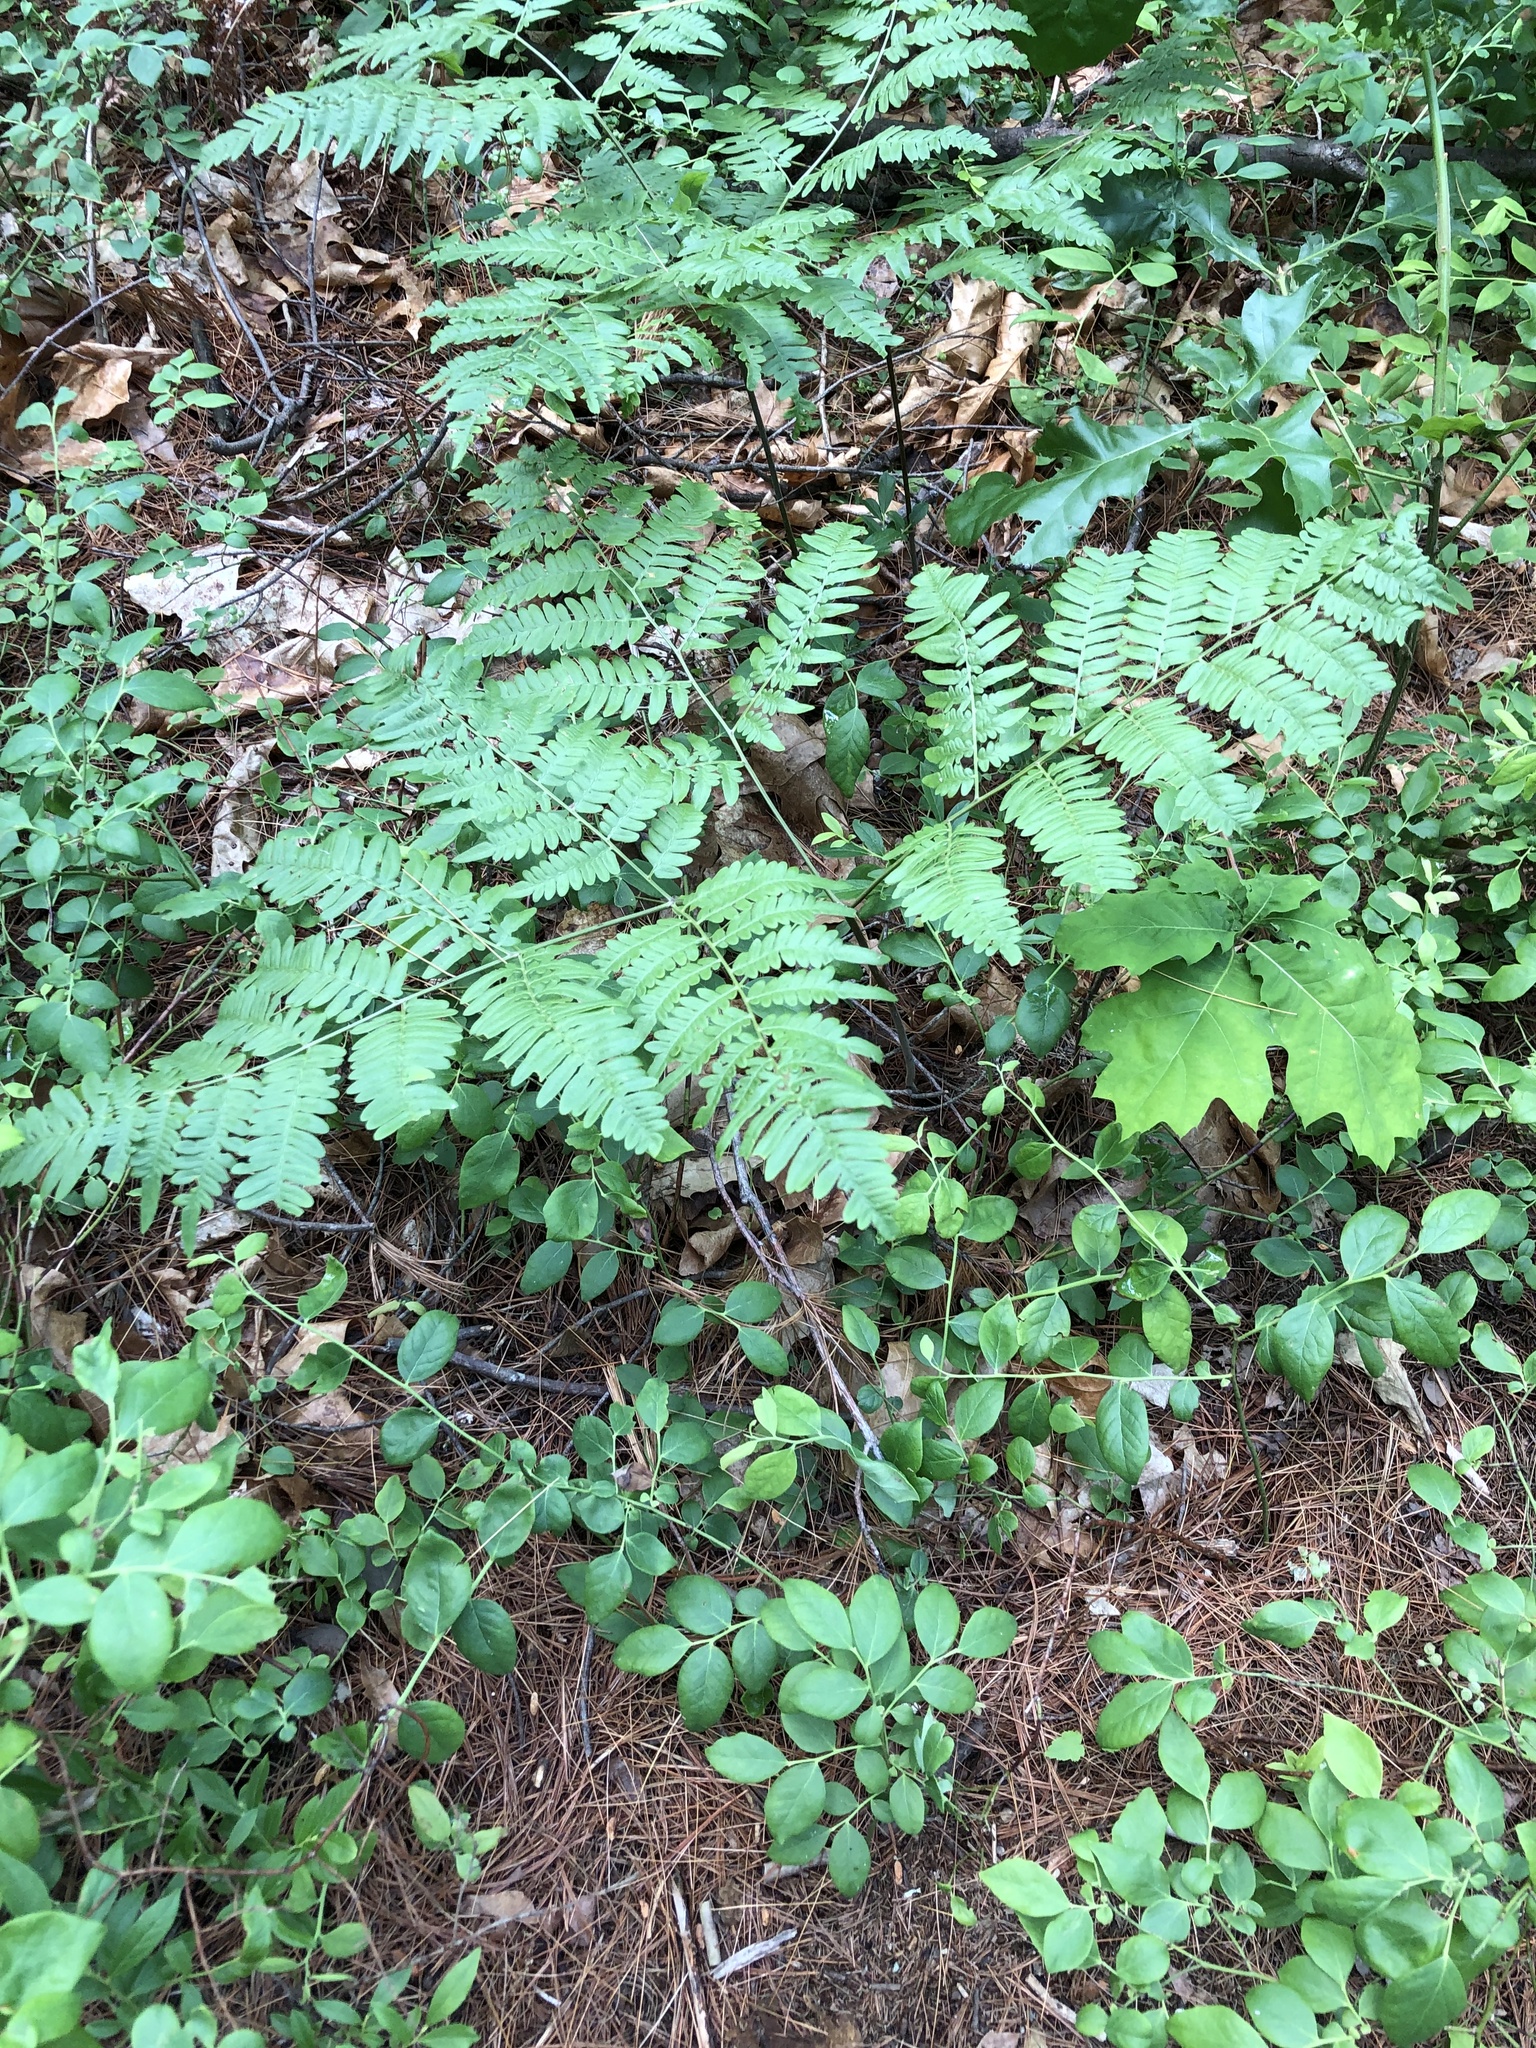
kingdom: Plantae
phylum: Tracheophyta
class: Polypodiopsida
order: Polypodiales
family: Dennstaedtiaceae
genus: Pteridium
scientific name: Pteridium aquilinum
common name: Bracken
